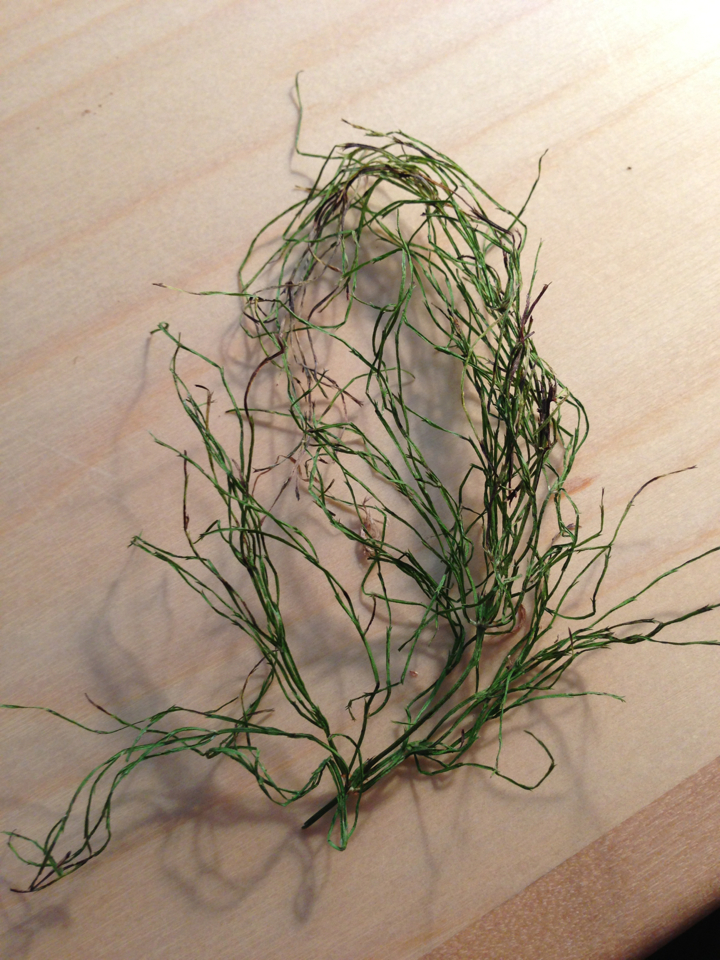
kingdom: Plantae
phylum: Tracheophyta
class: Polypodiopsida
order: Equisetales
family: Equisetaceae
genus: Equisetum
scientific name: Equisetum sylvaticum
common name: Wood horsetail
